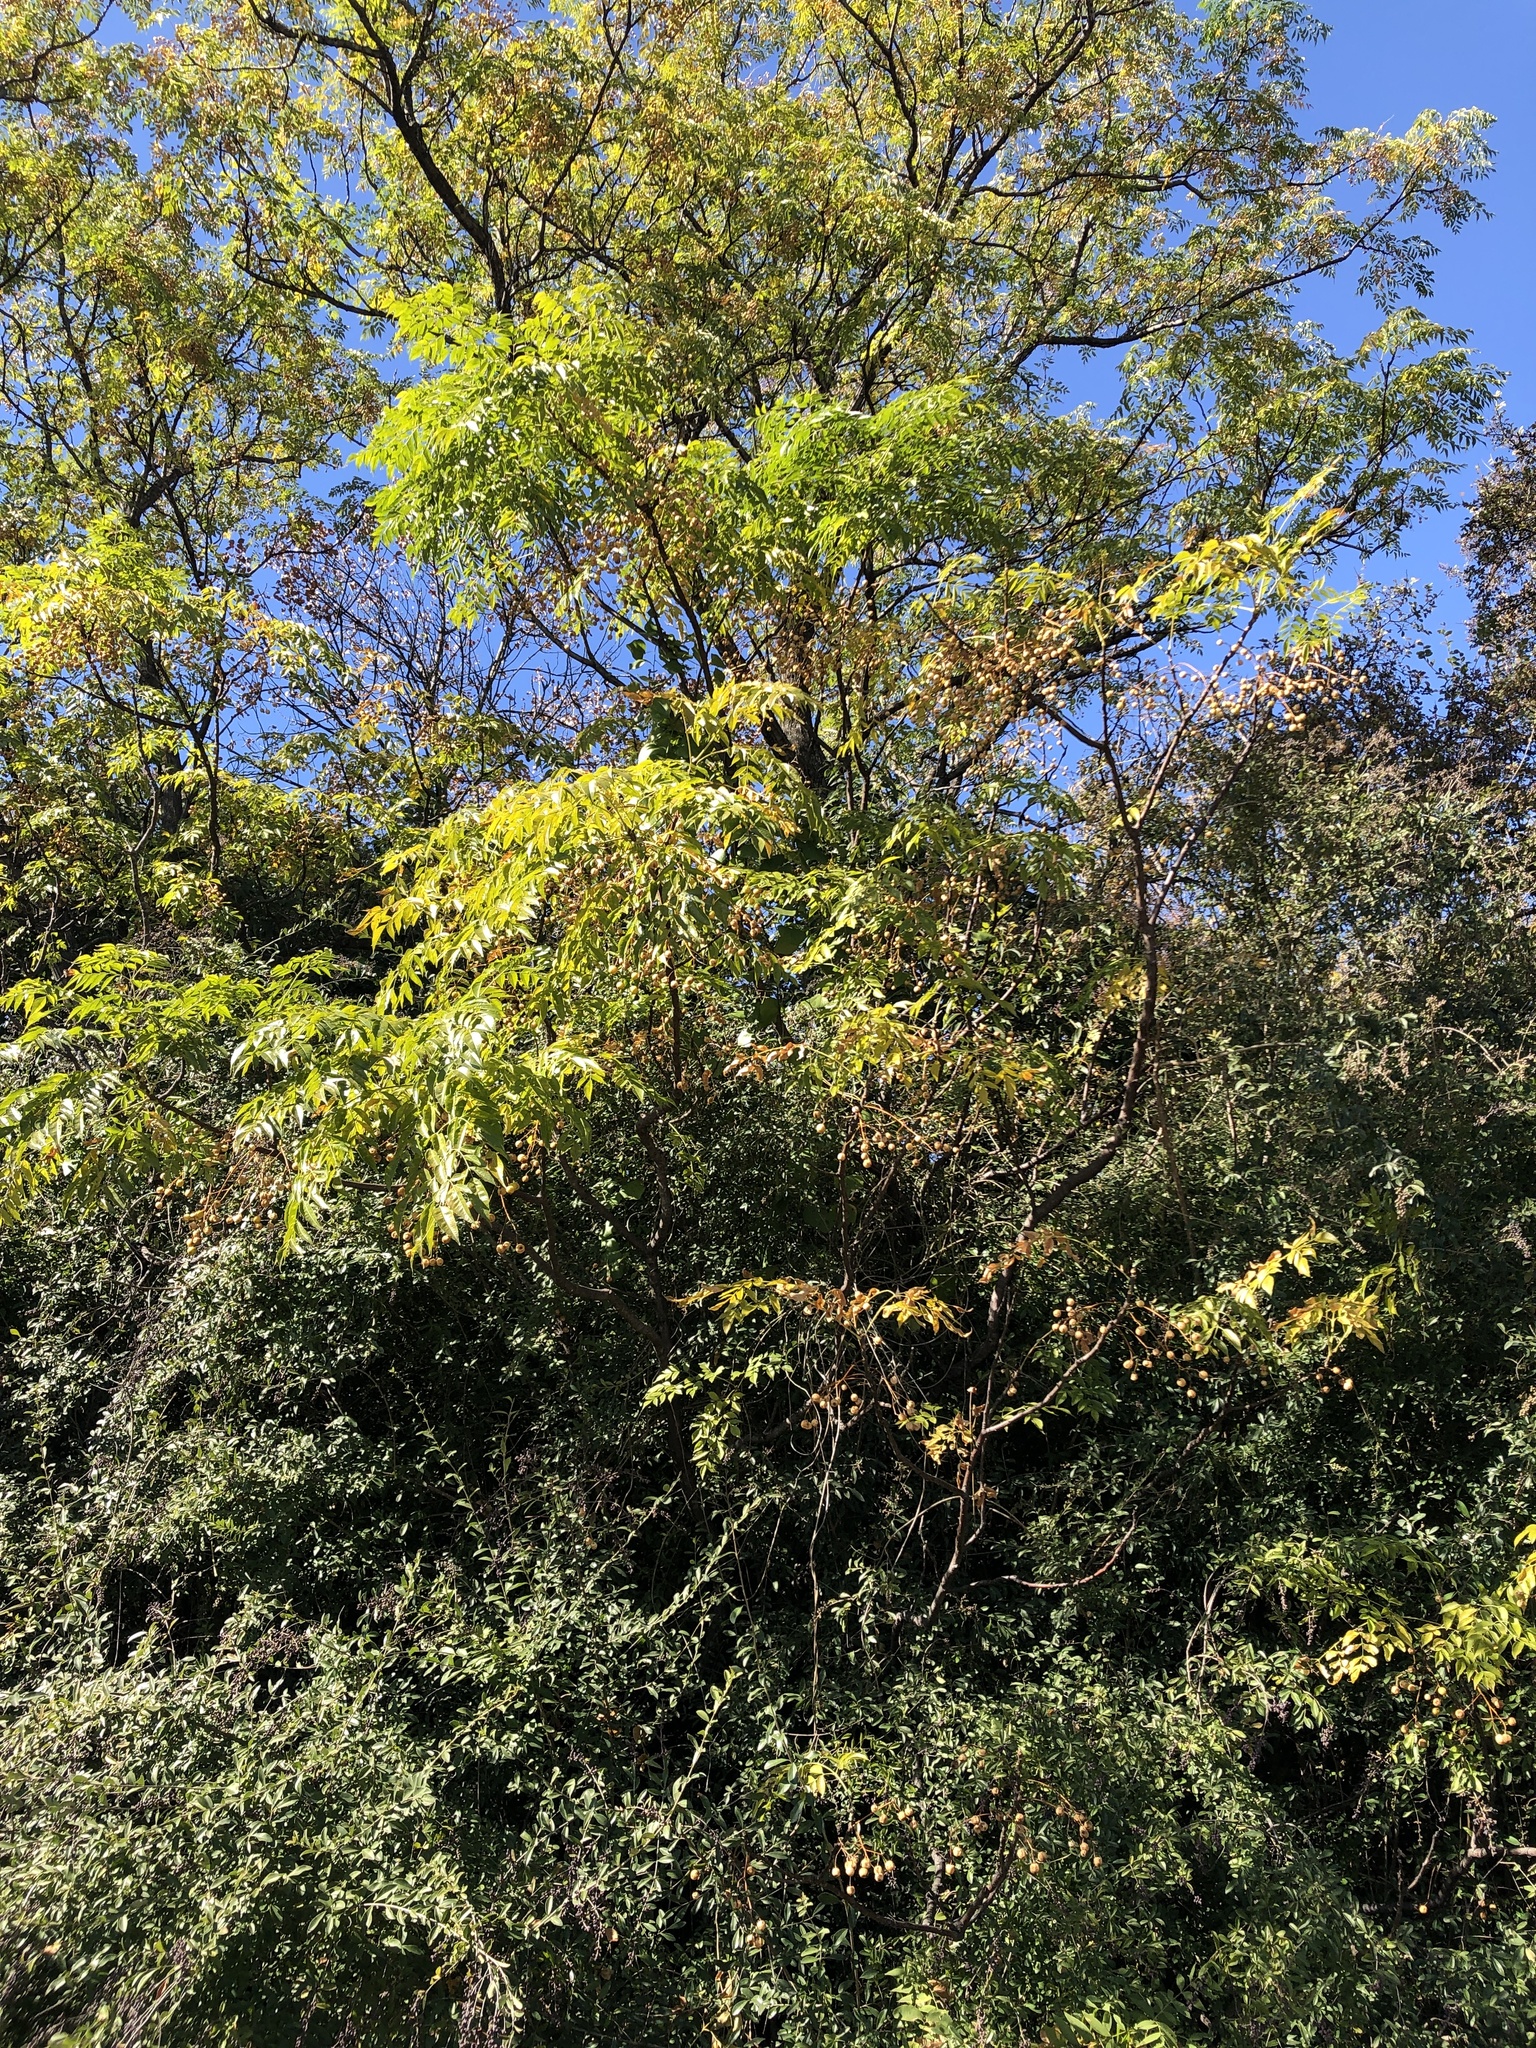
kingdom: Plantae
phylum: Tracheophyta
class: Magnoliopsida
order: Sapindales
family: Meliaceae
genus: Melia
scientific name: Melia azedarach
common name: Chinaberrytree
